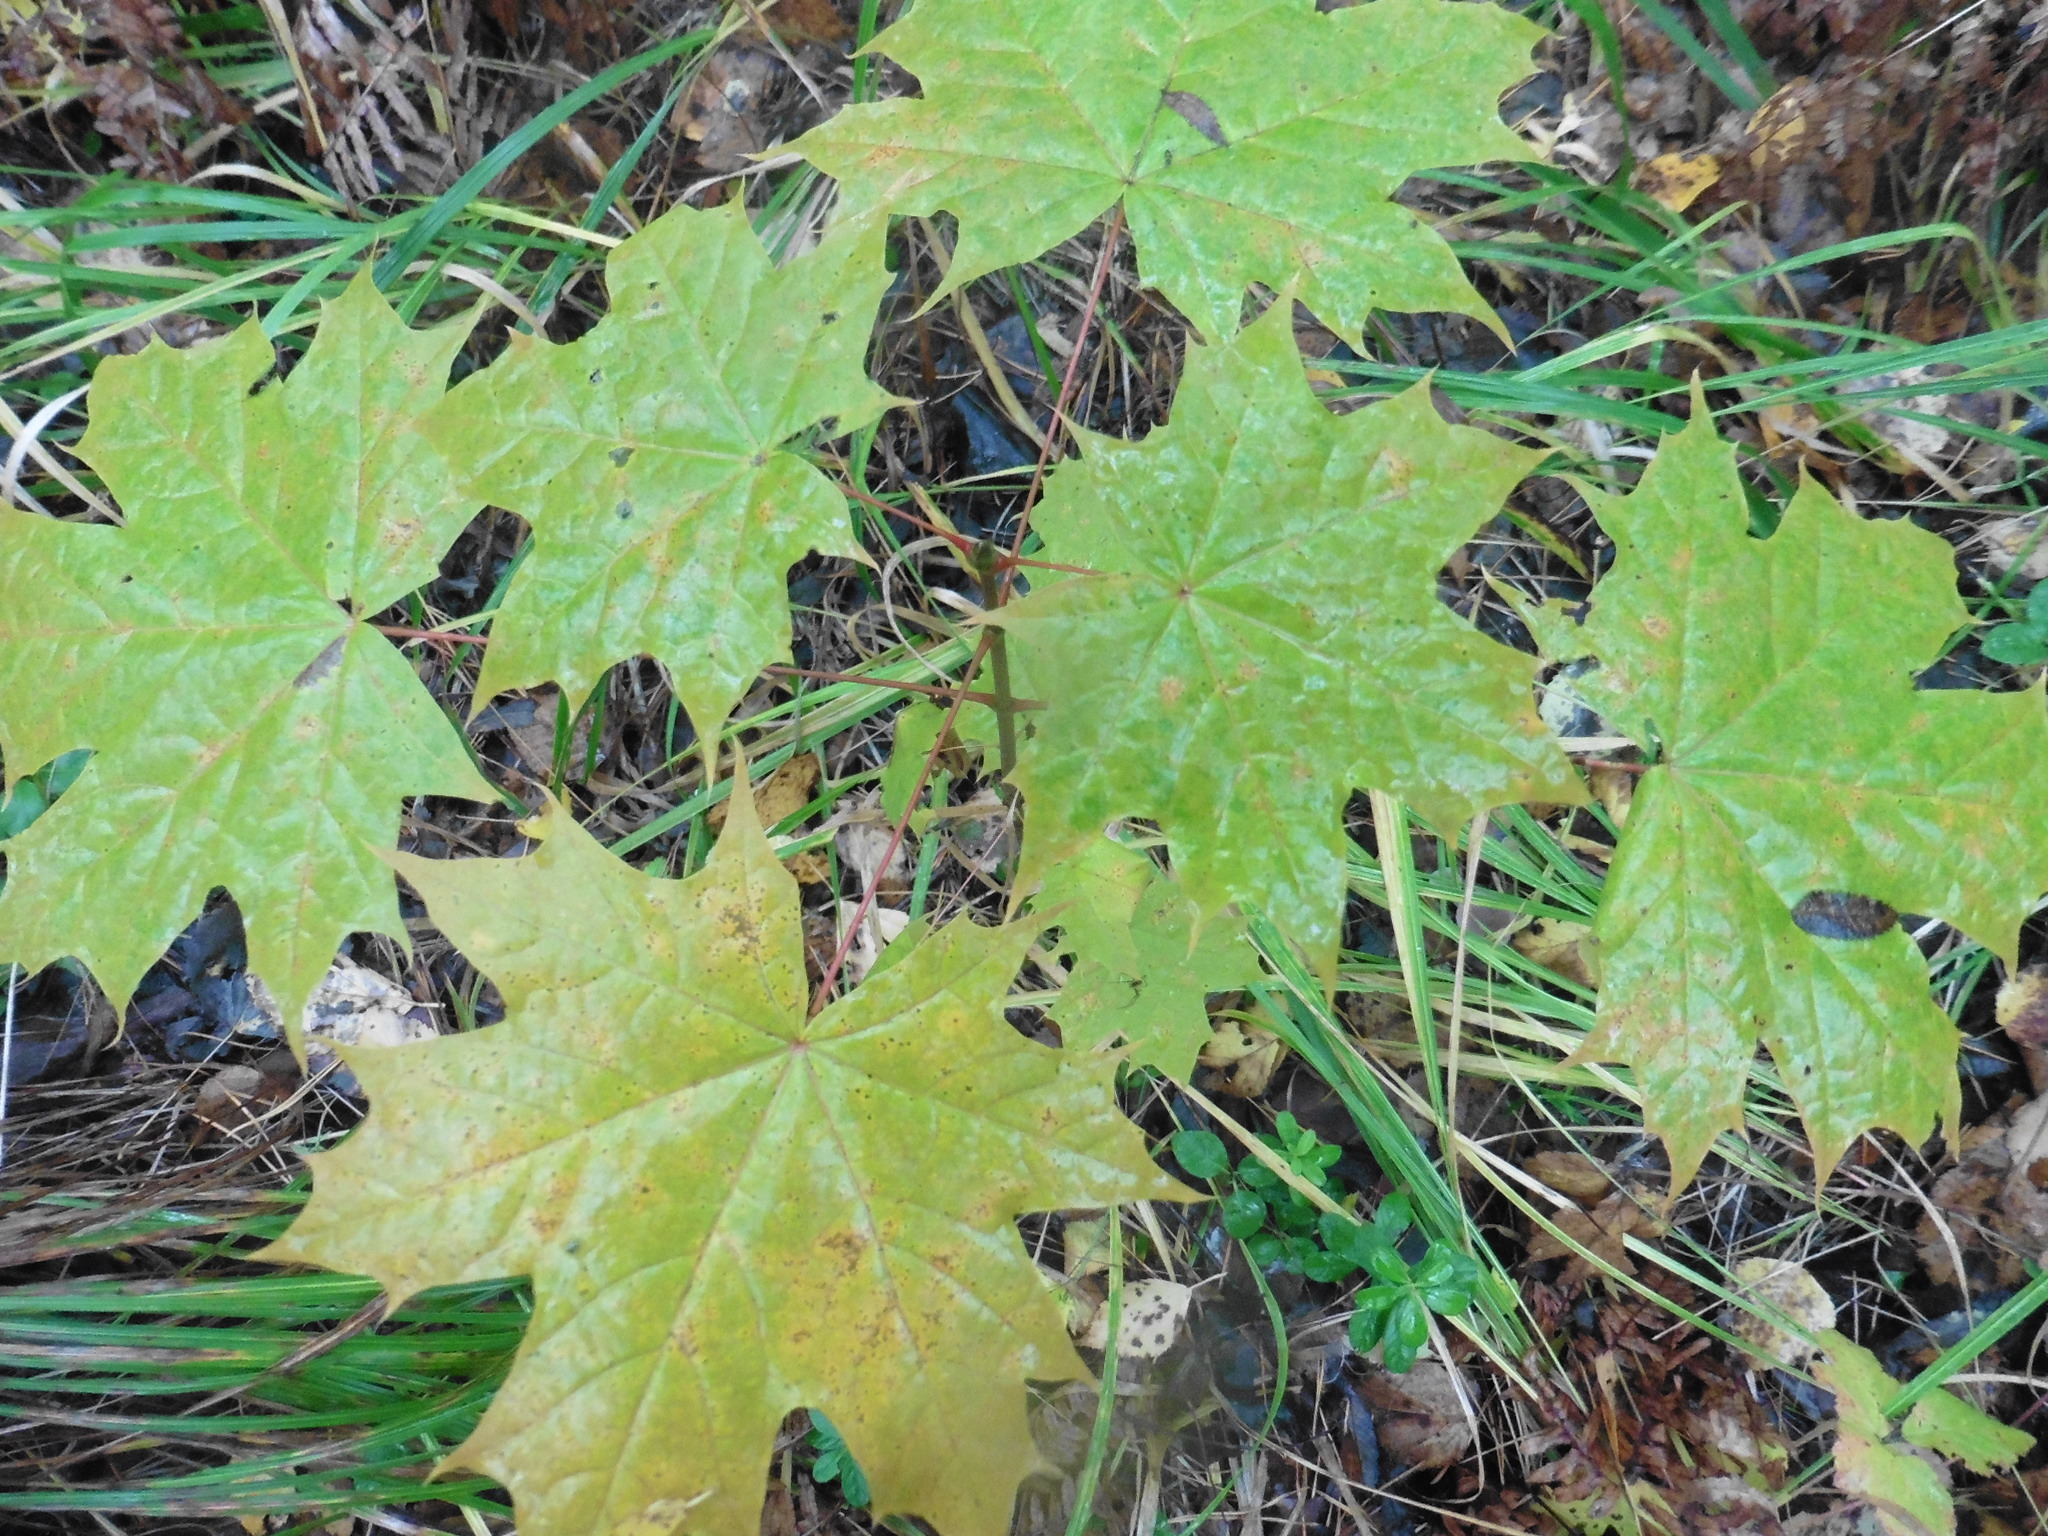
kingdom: Plantae
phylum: Tracheophyta
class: Magnoliopsida
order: Sapindales
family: Sapindaceae
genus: Acer
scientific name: Acer platanoides
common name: Norway maple
